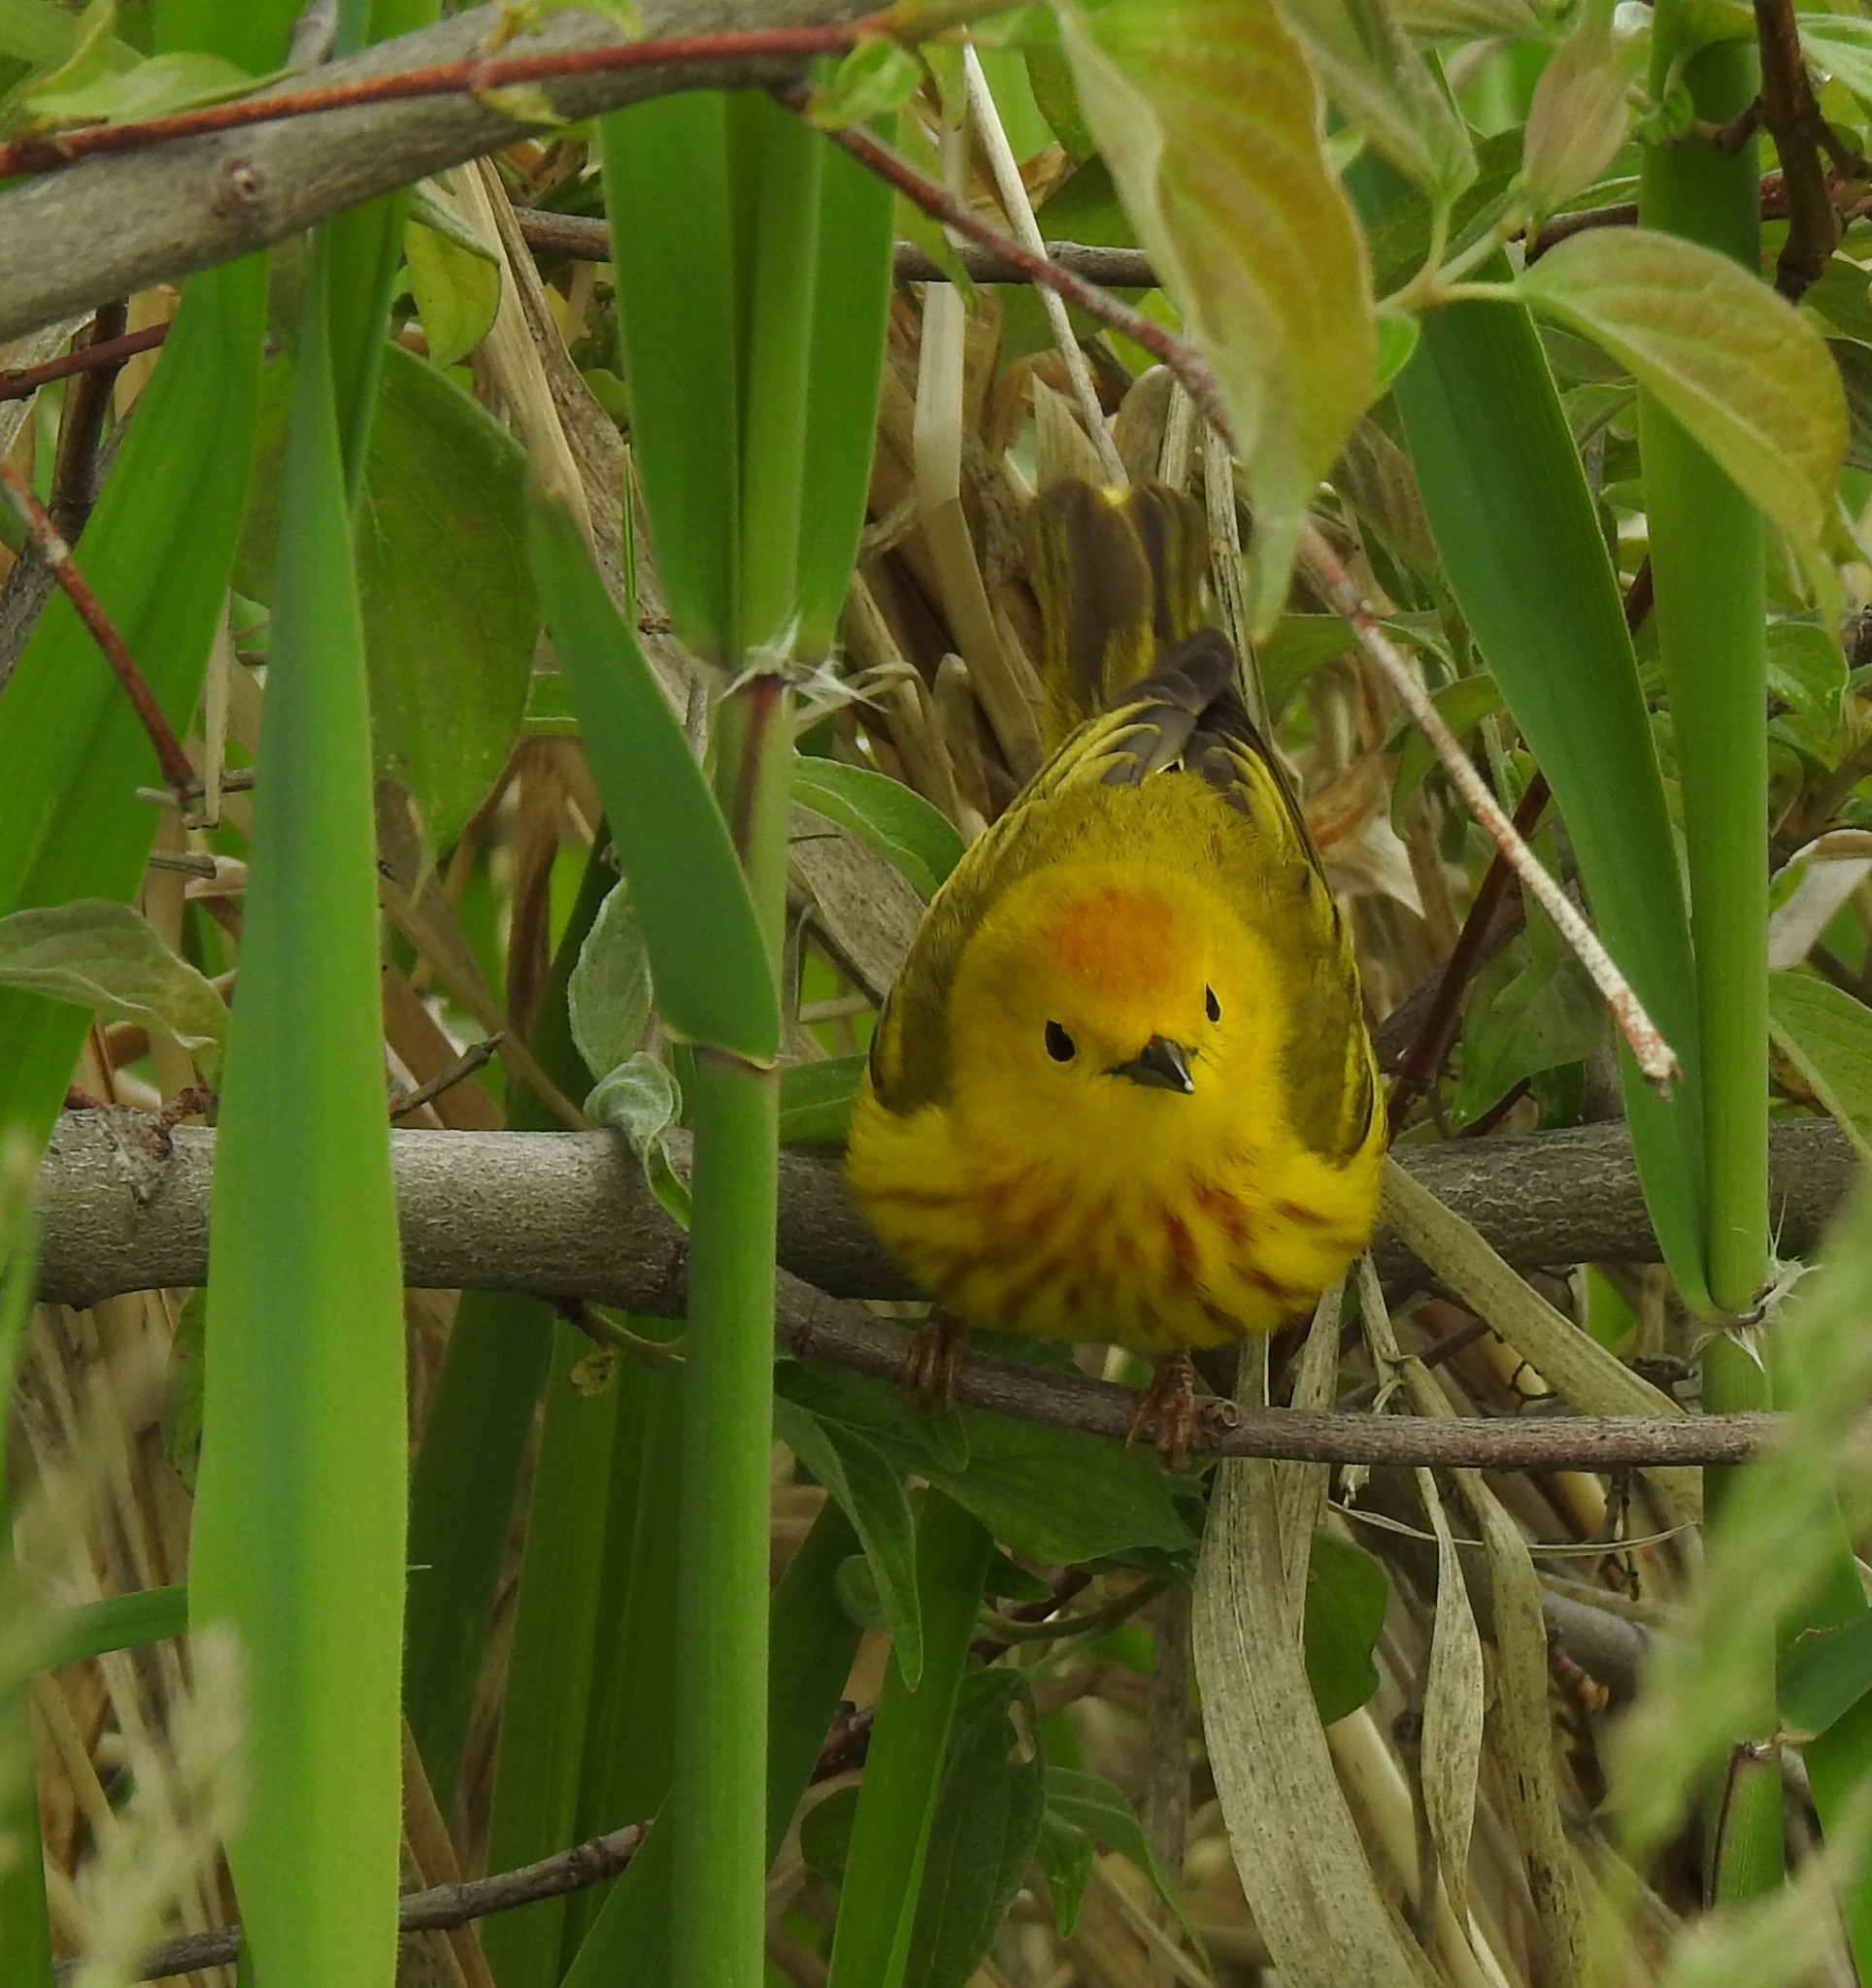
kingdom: Animalia
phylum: Chordata
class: Aves
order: Passeriformes
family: Parulidae
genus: Setophaga
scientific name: Setophaga petechia
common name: Yellow warbler
